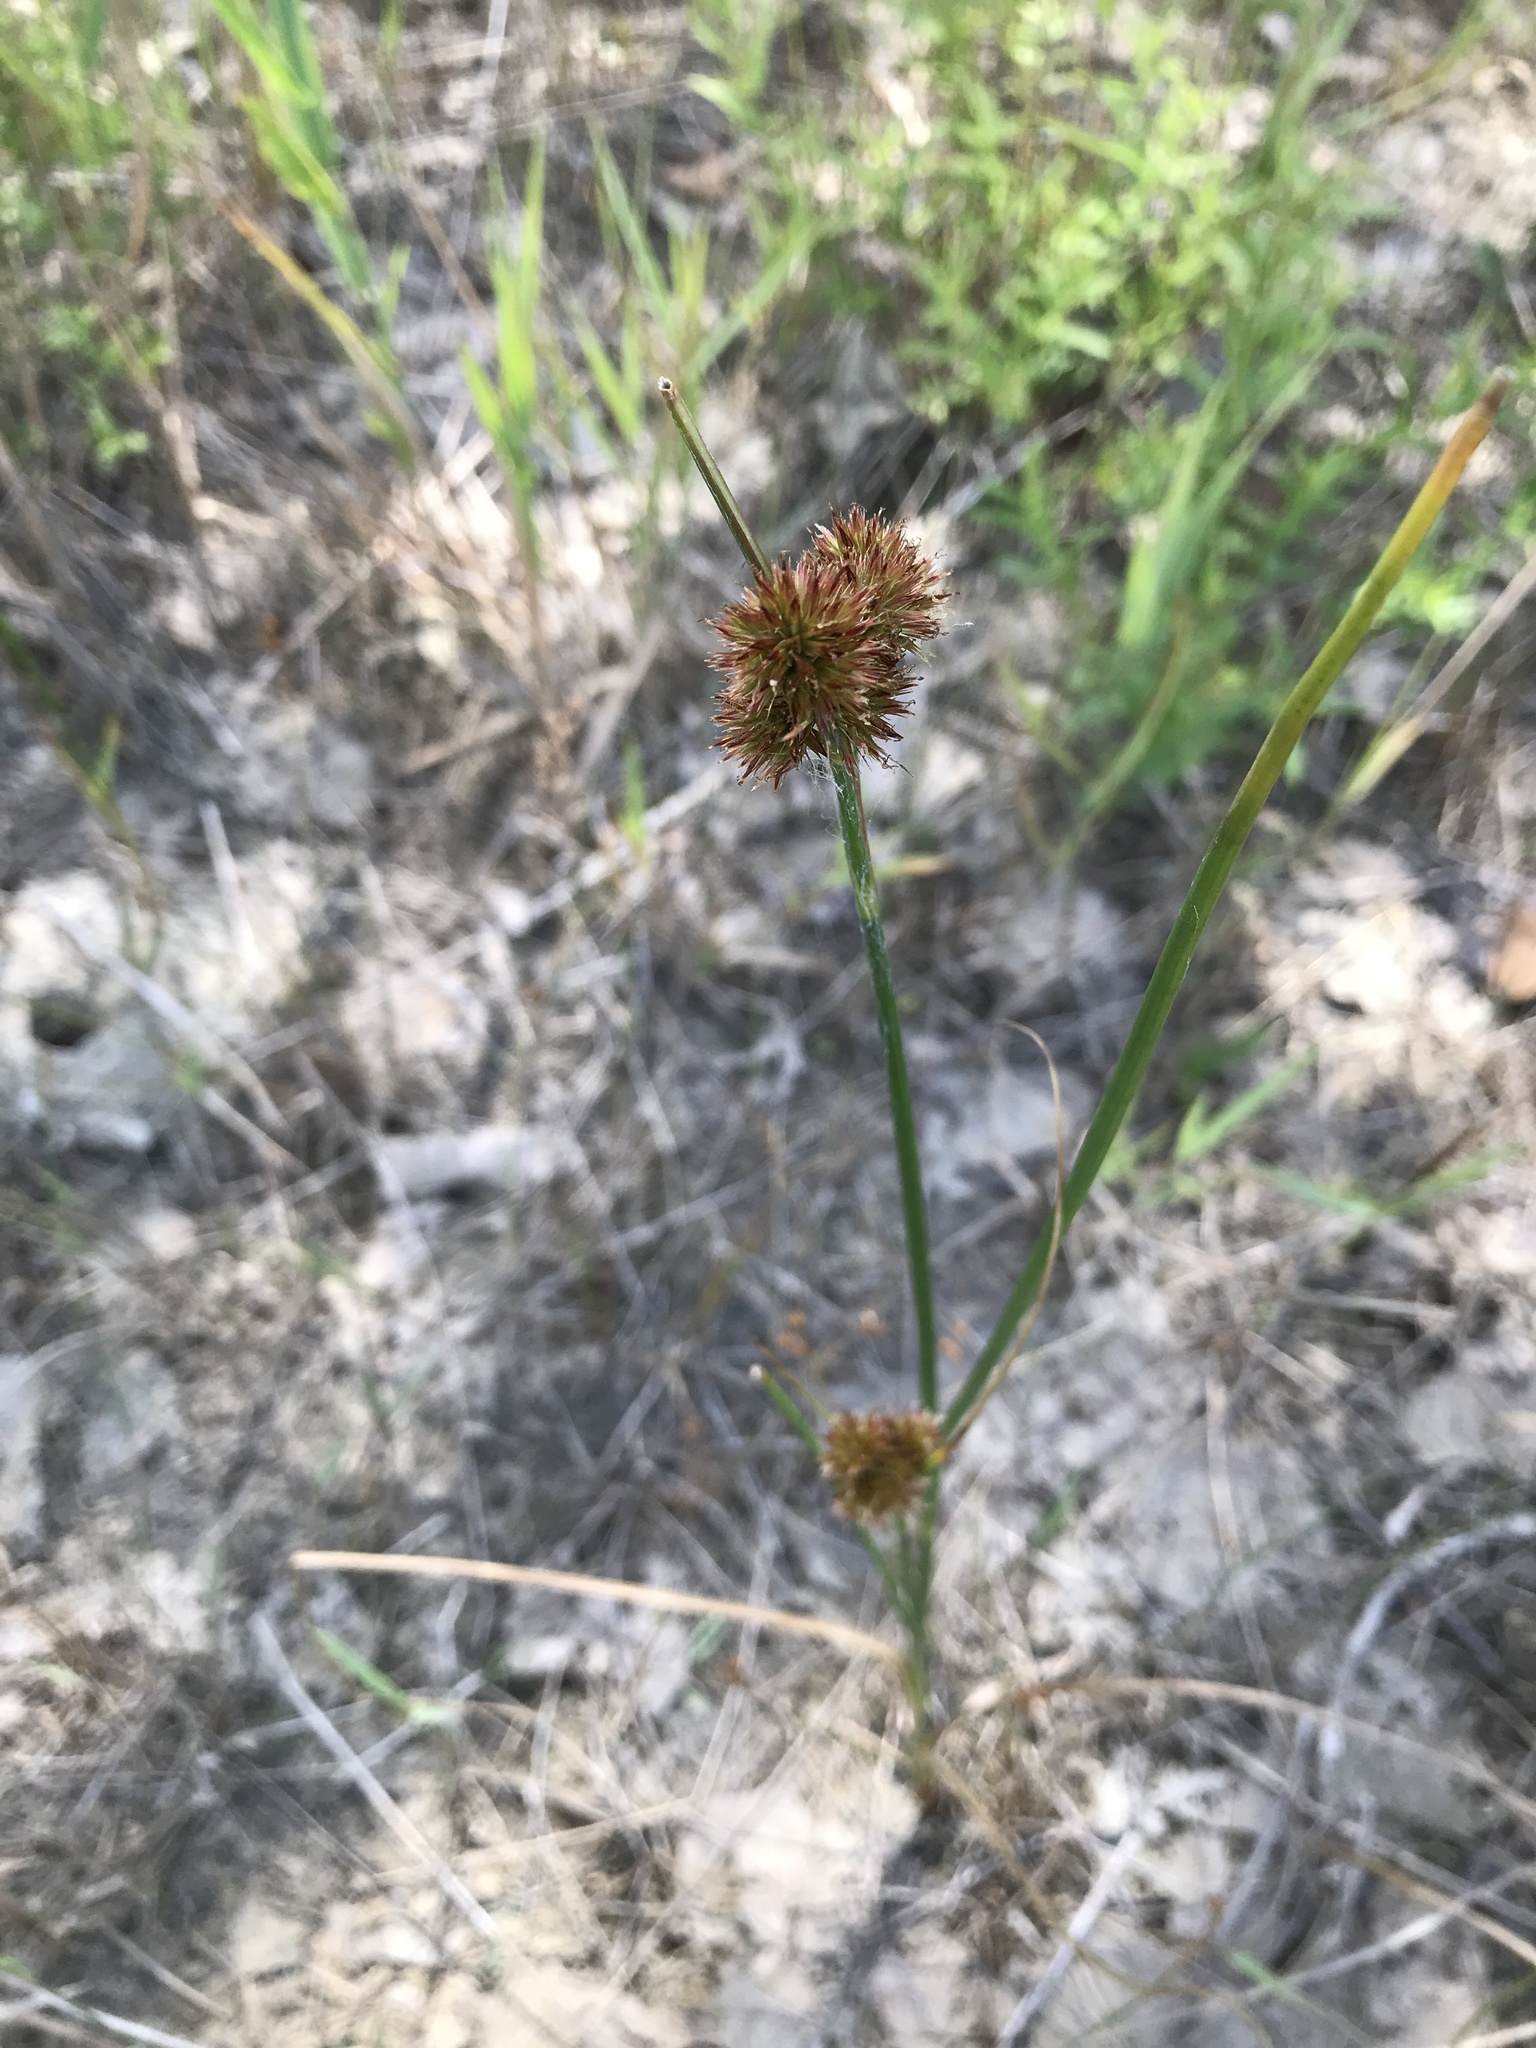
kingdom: Plantae
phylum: Tracheophyta
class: Liliopsida
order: Poales
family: Juncaceae
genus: Juncus
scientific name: Juncus torreyi
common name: Torrey's rush
